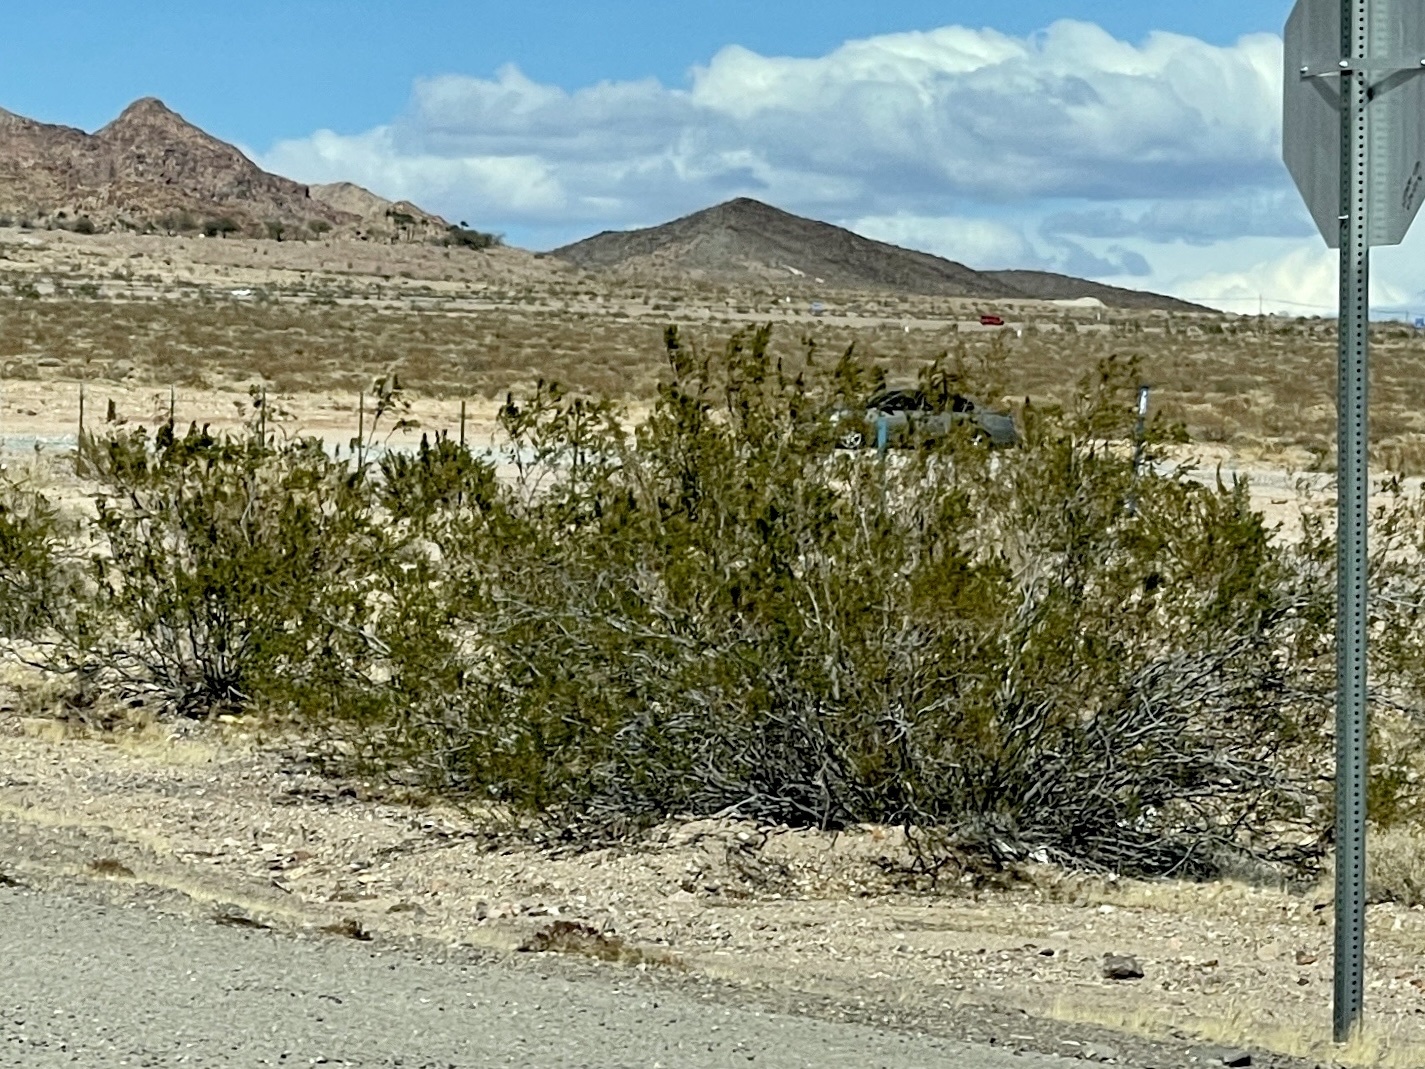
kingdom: Plantae
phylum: Tracheophyta
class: Magnoliopsida
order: Zygophyllales
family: Zygophyllaceae
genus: Larrea
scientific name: Larrea tridentata
